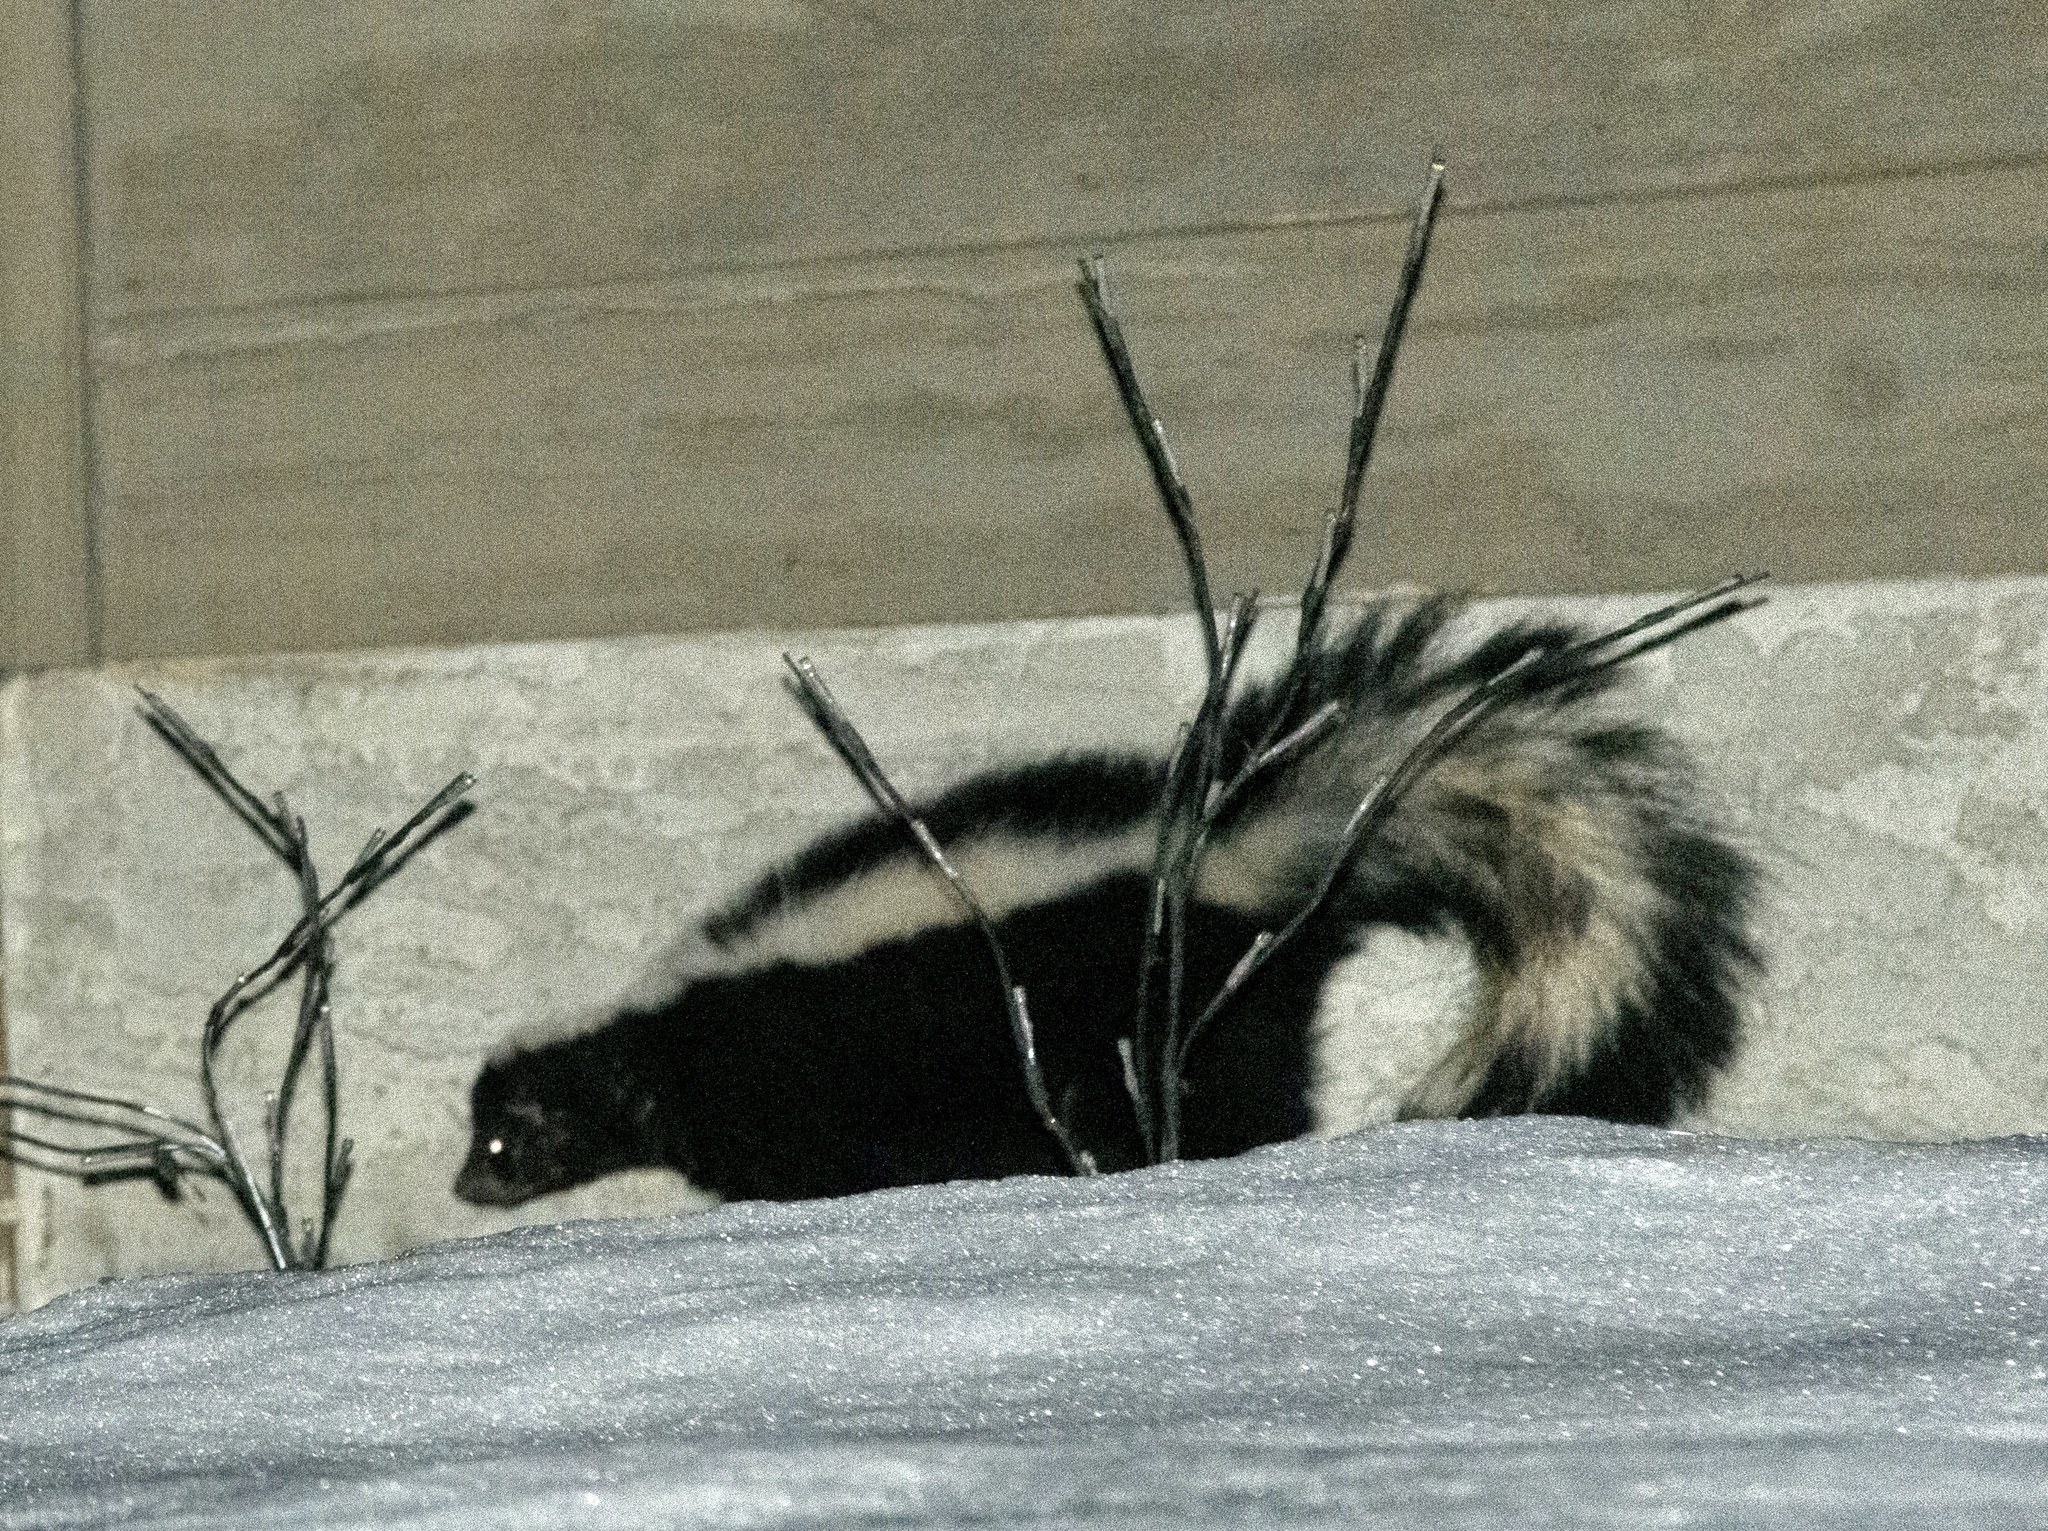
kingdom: Animalia
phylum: Chordata
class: Mammalia
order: Carnivora
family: Mephitidae
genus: Mephitis
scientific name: Mephitis mephitis
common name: Striped skunk
